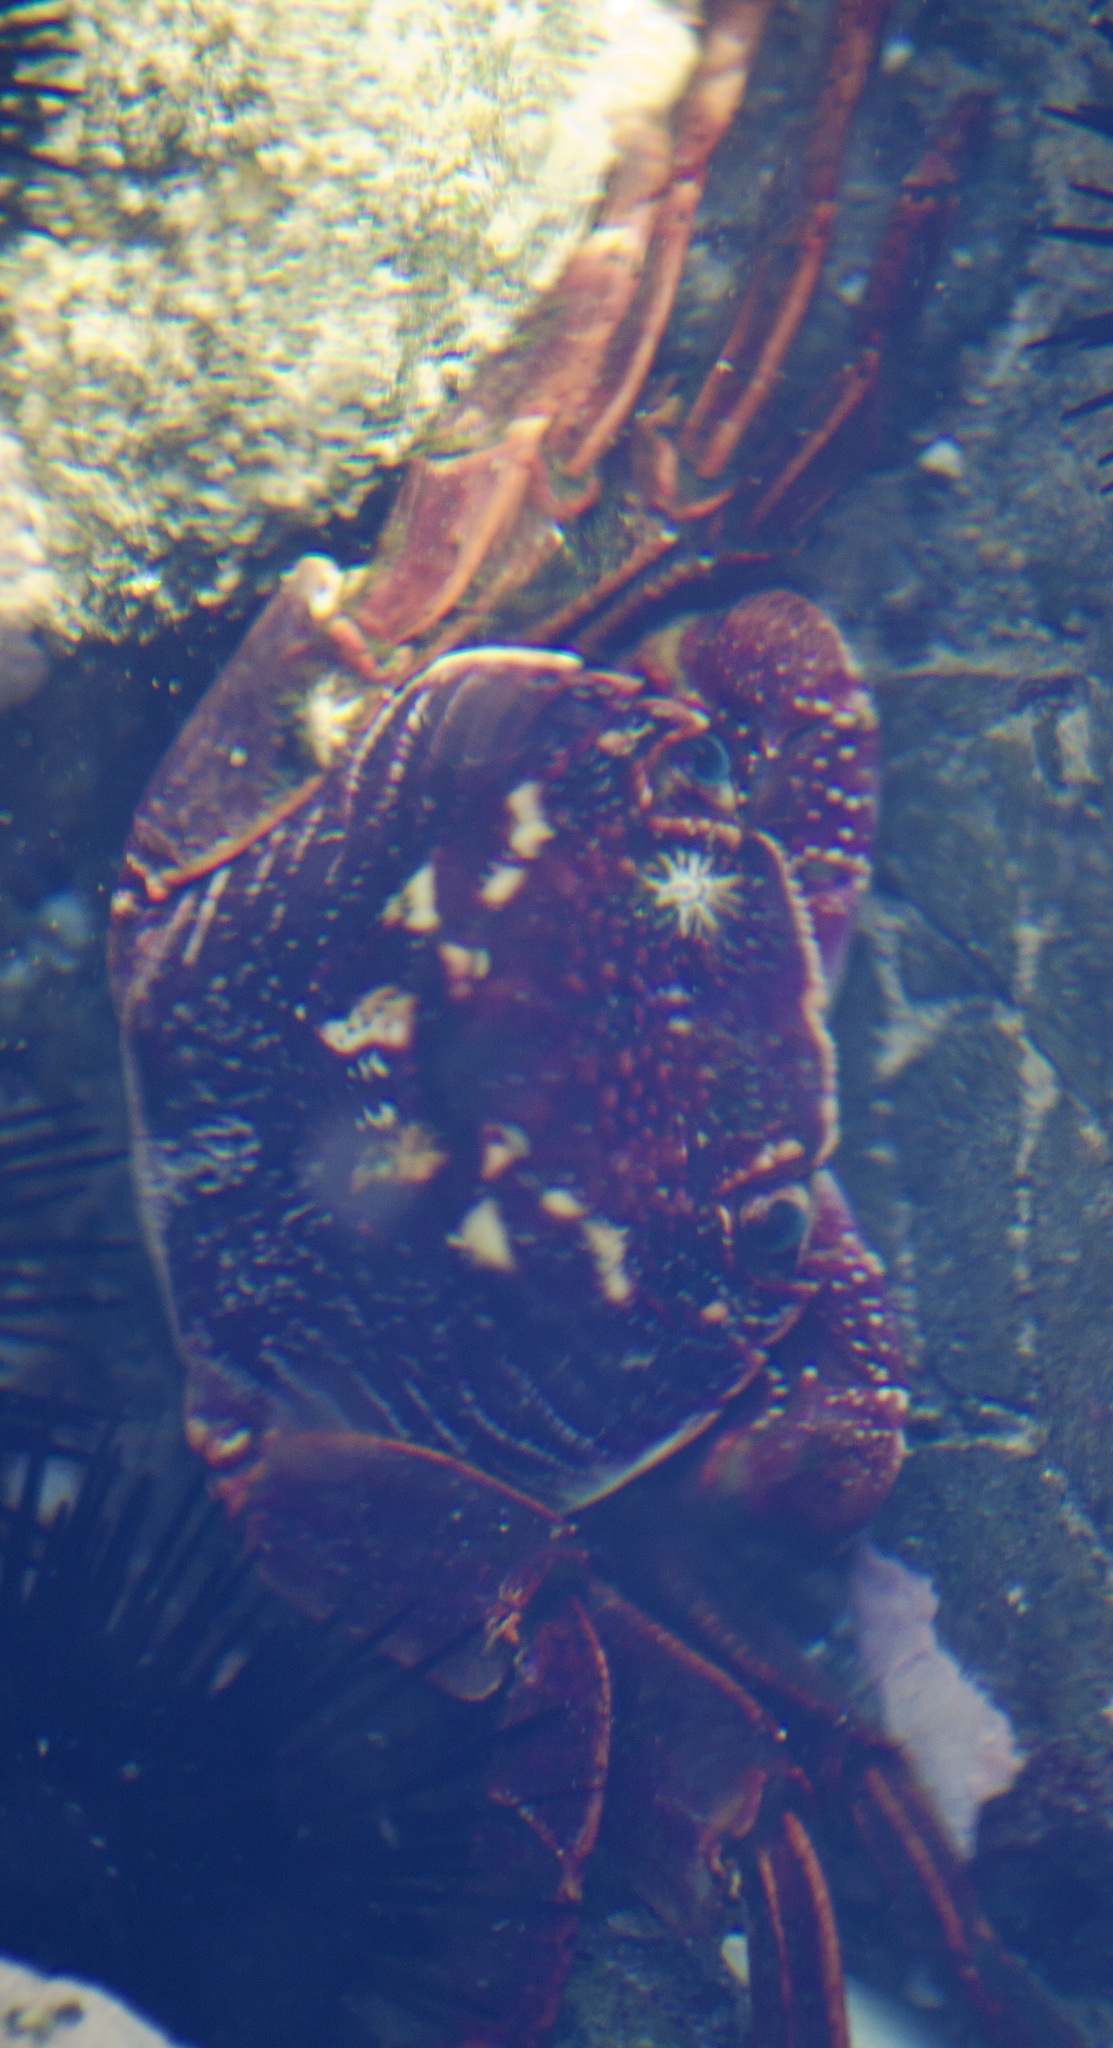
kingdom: Animalia
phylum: Arthropoda
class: Malacostraca
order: Decapoda
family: Grapsidae
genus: Leptograpsus
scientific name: Leptograpsus variegatus
